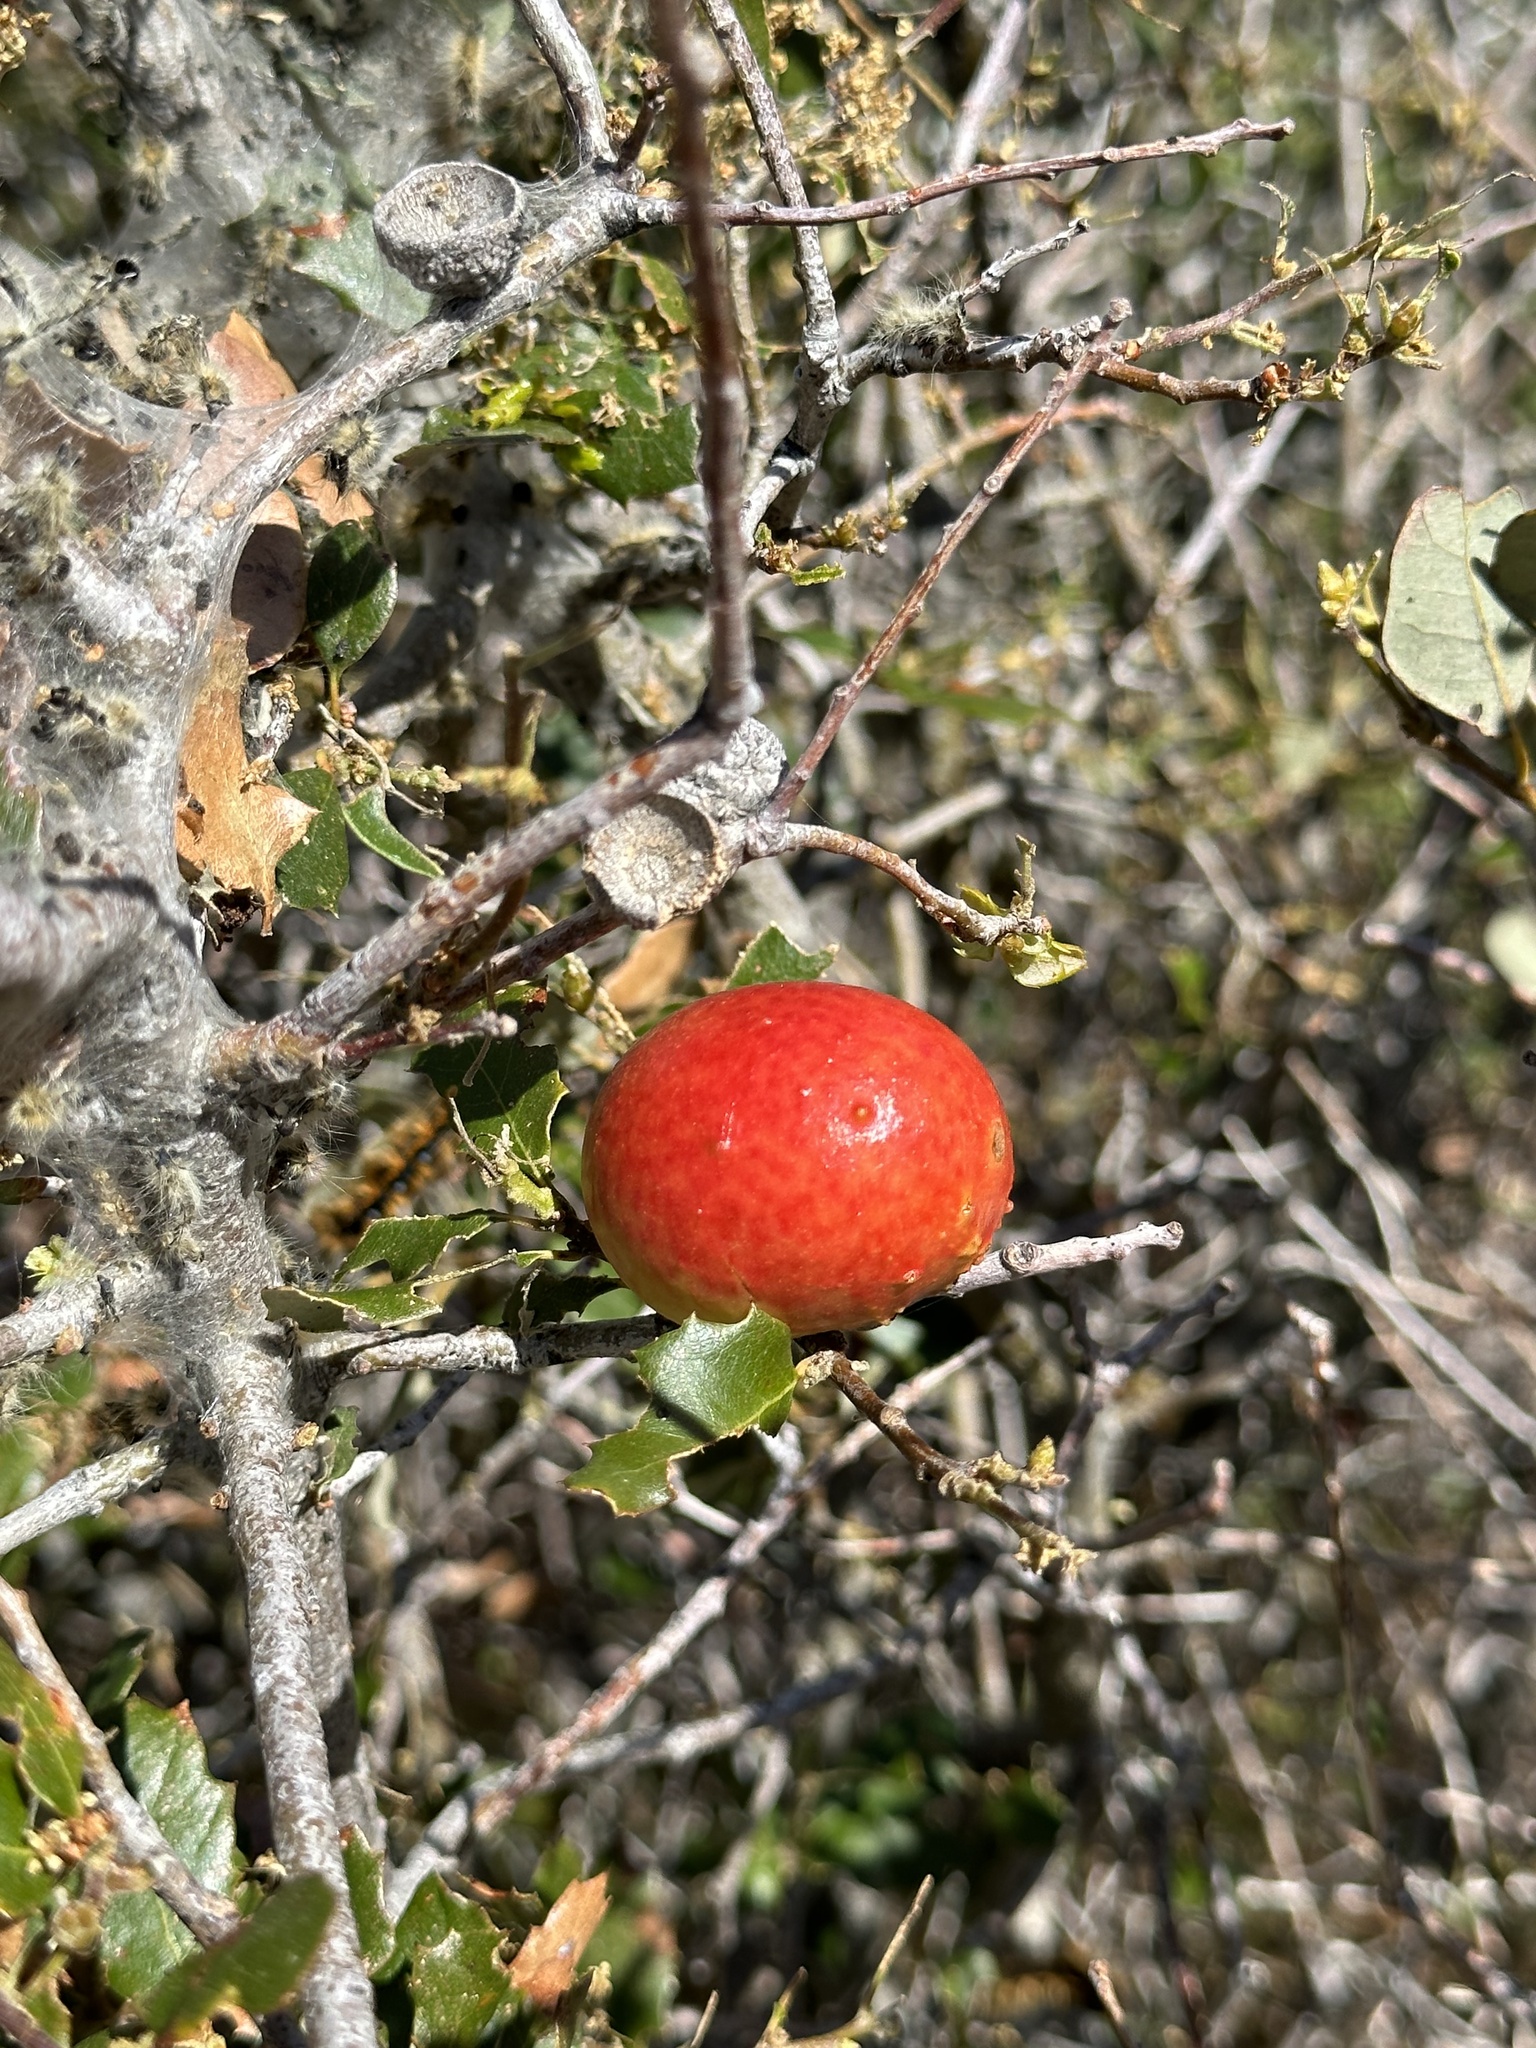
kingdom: Animalia
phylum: Arthropoda
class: Insecta
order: Hymenoptera
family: Cynipidae
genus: Andricus
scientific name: Andricus quercuscalifornicus
